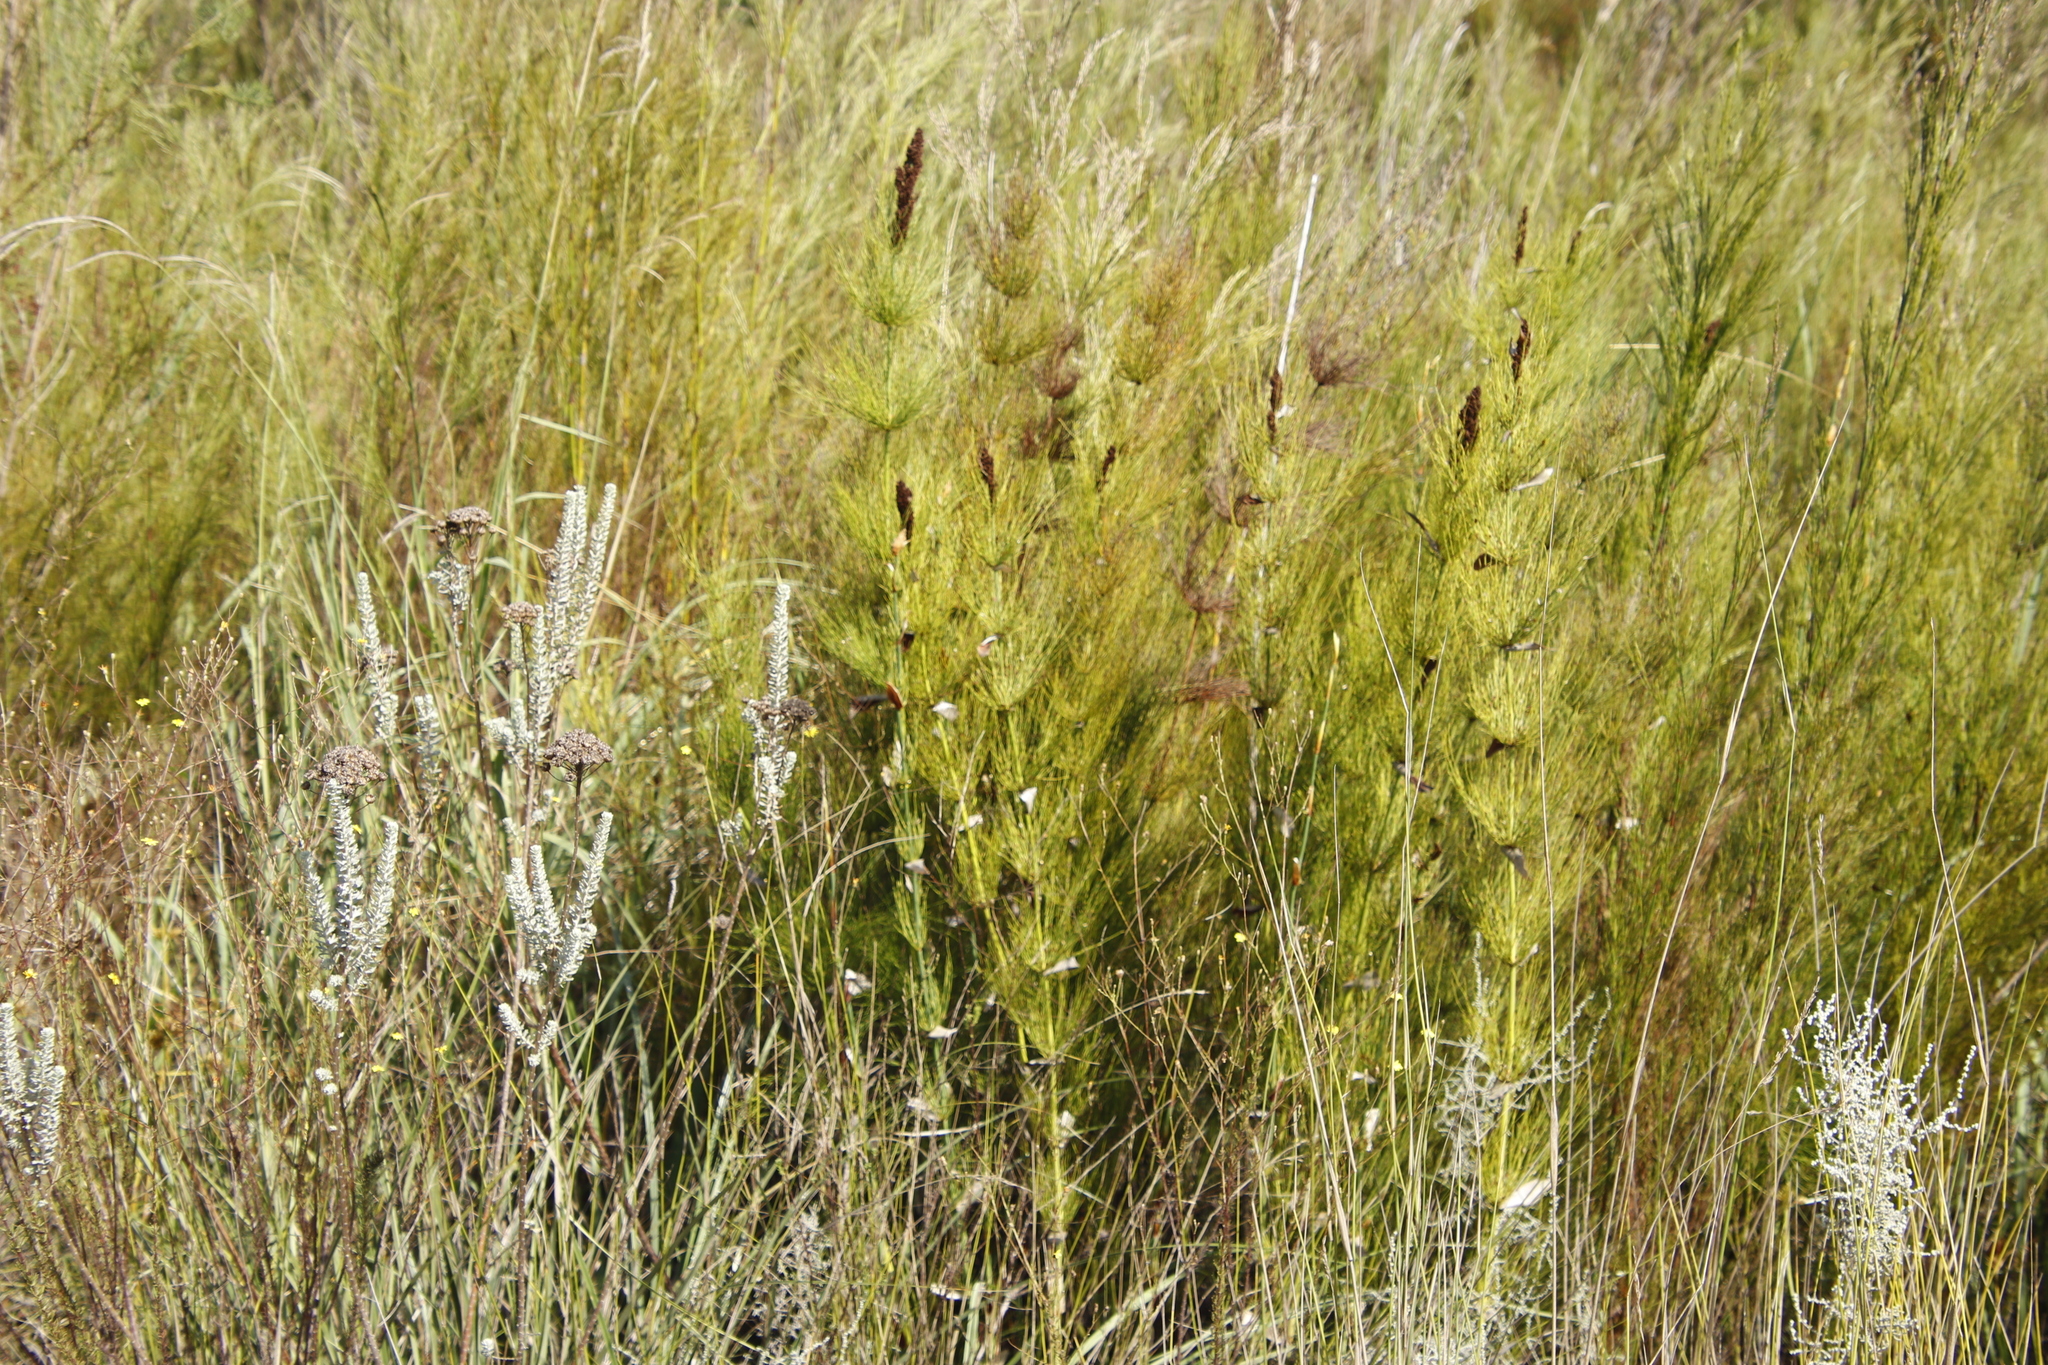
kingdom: Plantae
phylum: Tracheophyta
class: Liliopsida
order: Poales
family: Restionaceae
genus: Elegia
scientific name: Elegia capensis
